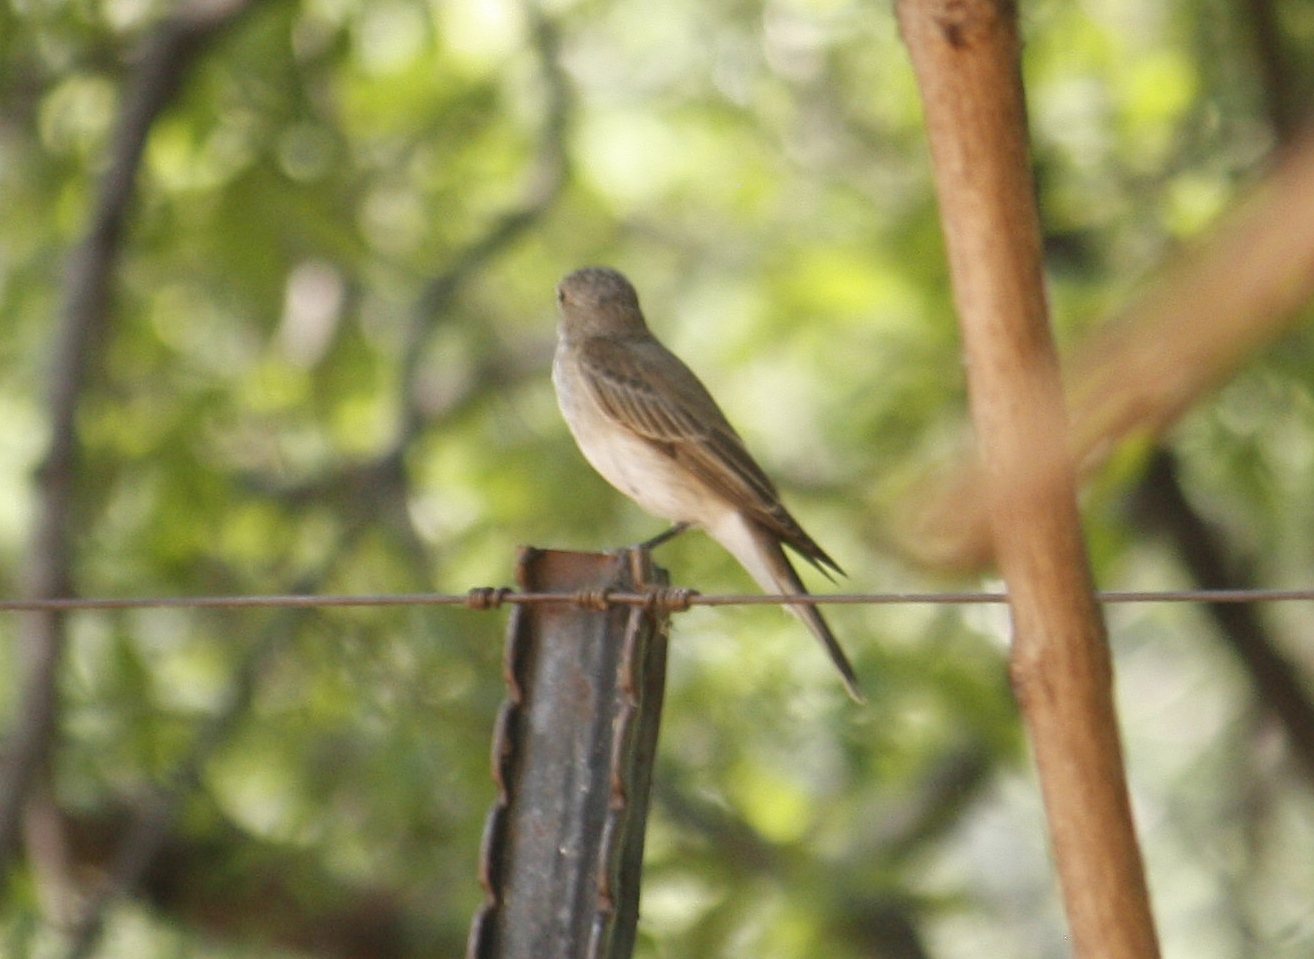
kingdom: Animalia
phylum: Chordata
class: Aves
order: Passeriformes
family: Muscicapidae
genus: Muscicapa
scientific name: Muscicapa striata
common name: Spotted flycatcher
